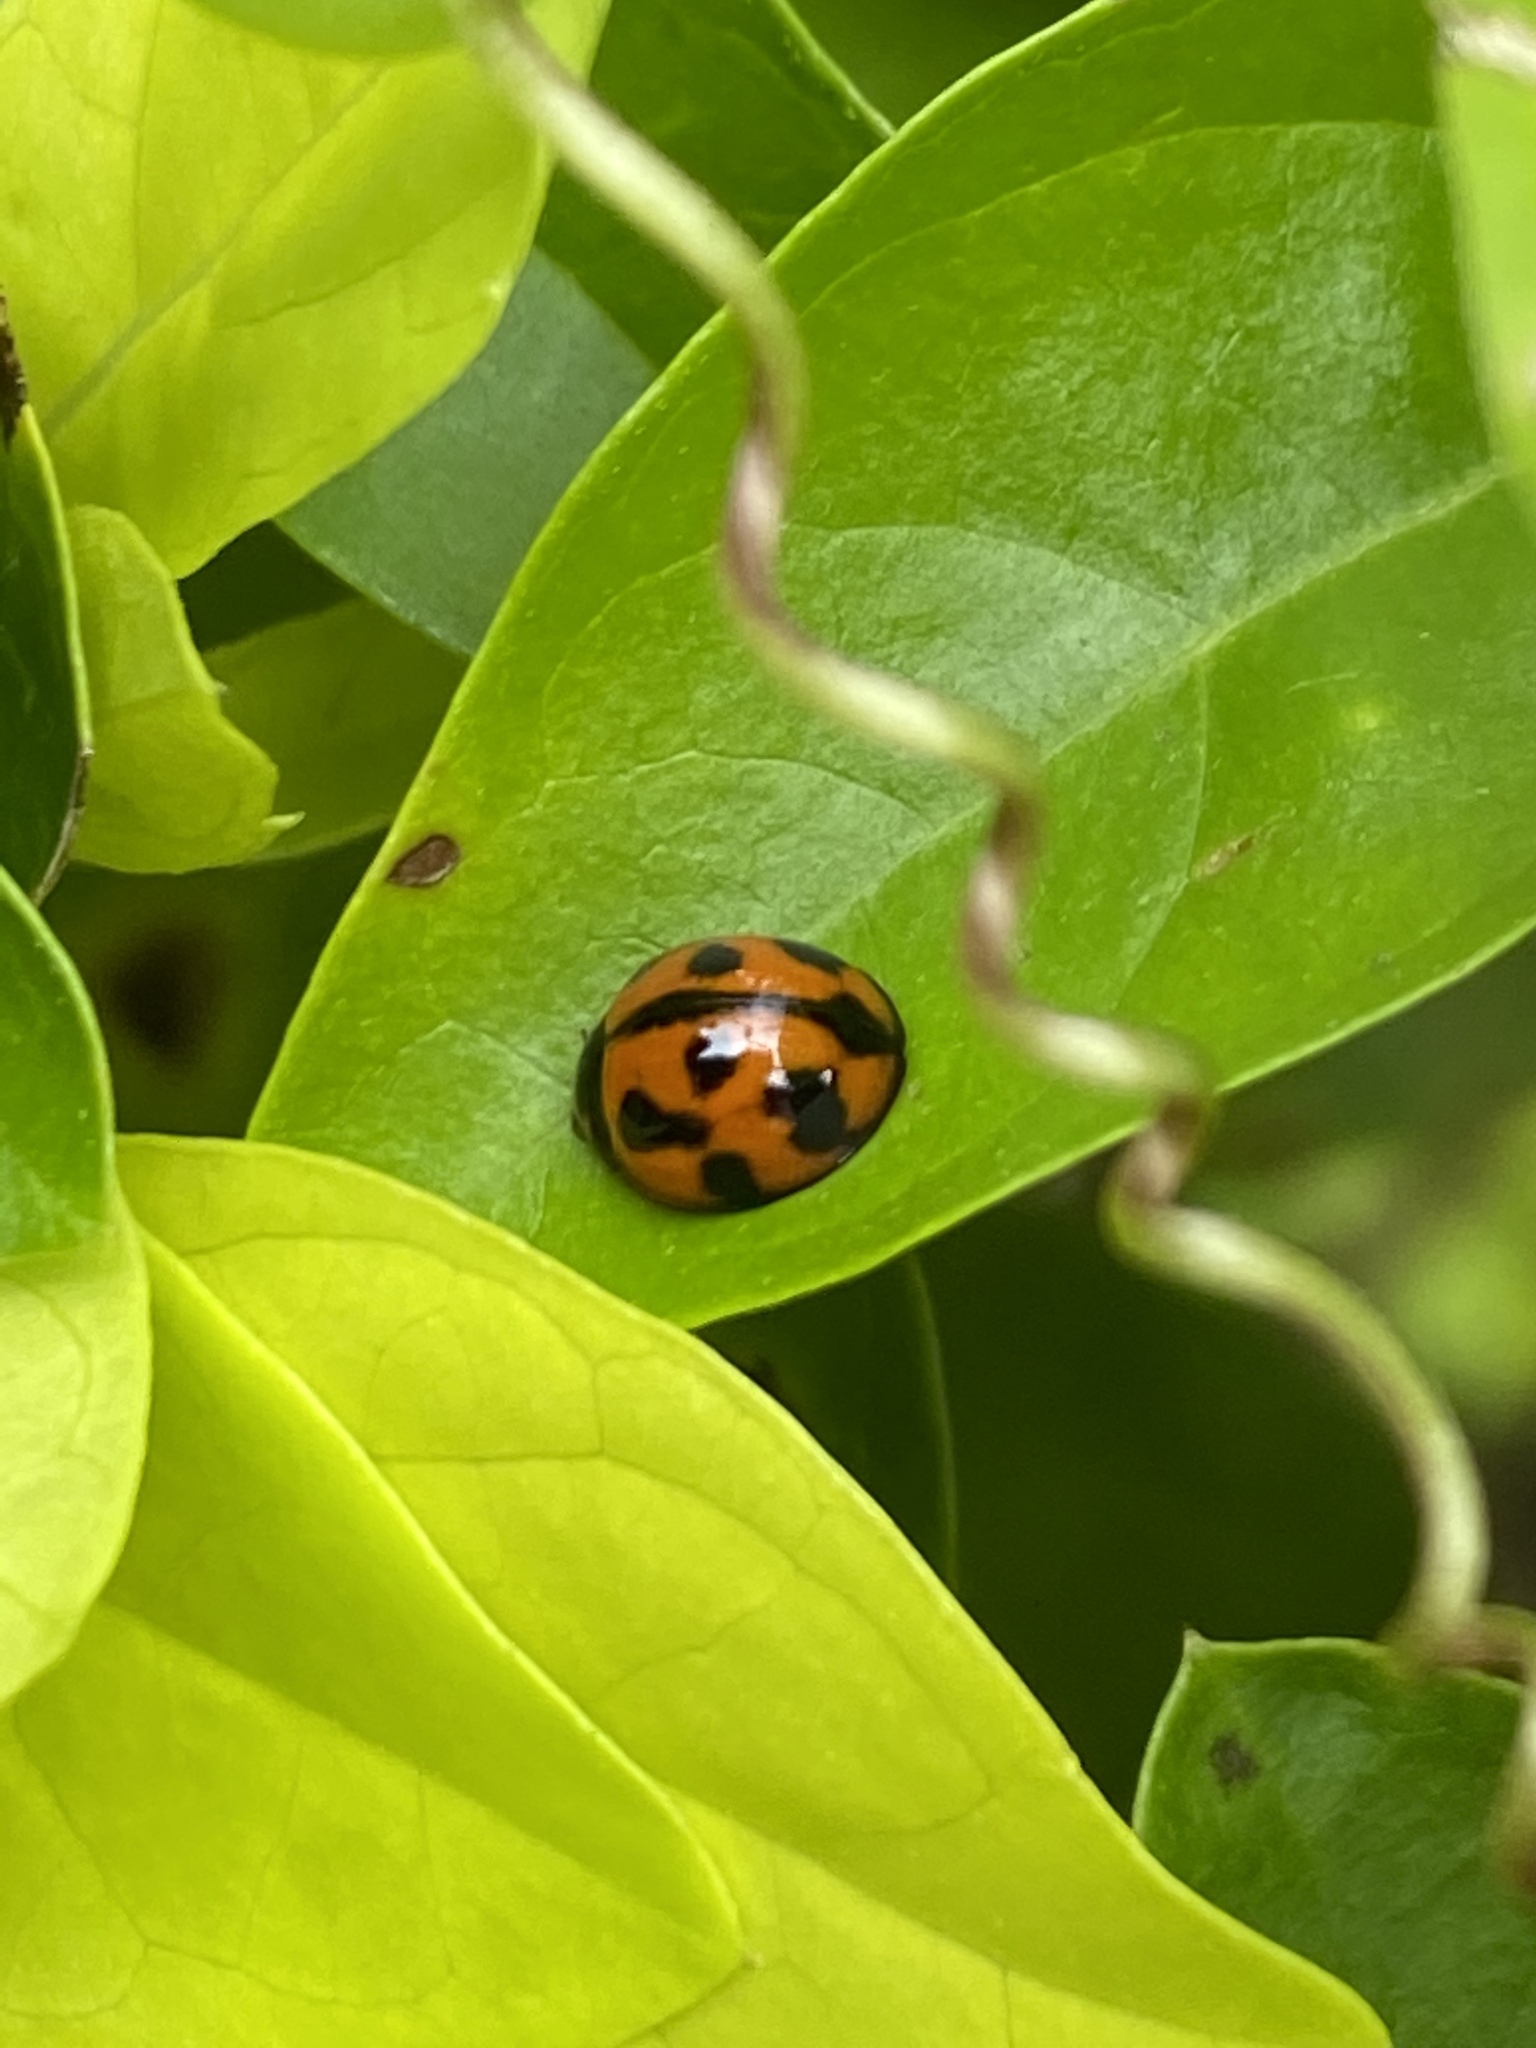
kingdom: Animalia
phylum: Arthropoda
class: Insecta
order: Coleoptera
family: Coccinellidae
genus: Coelophora
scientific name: Coelophora inaequalis
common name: Common australian lady beetle
